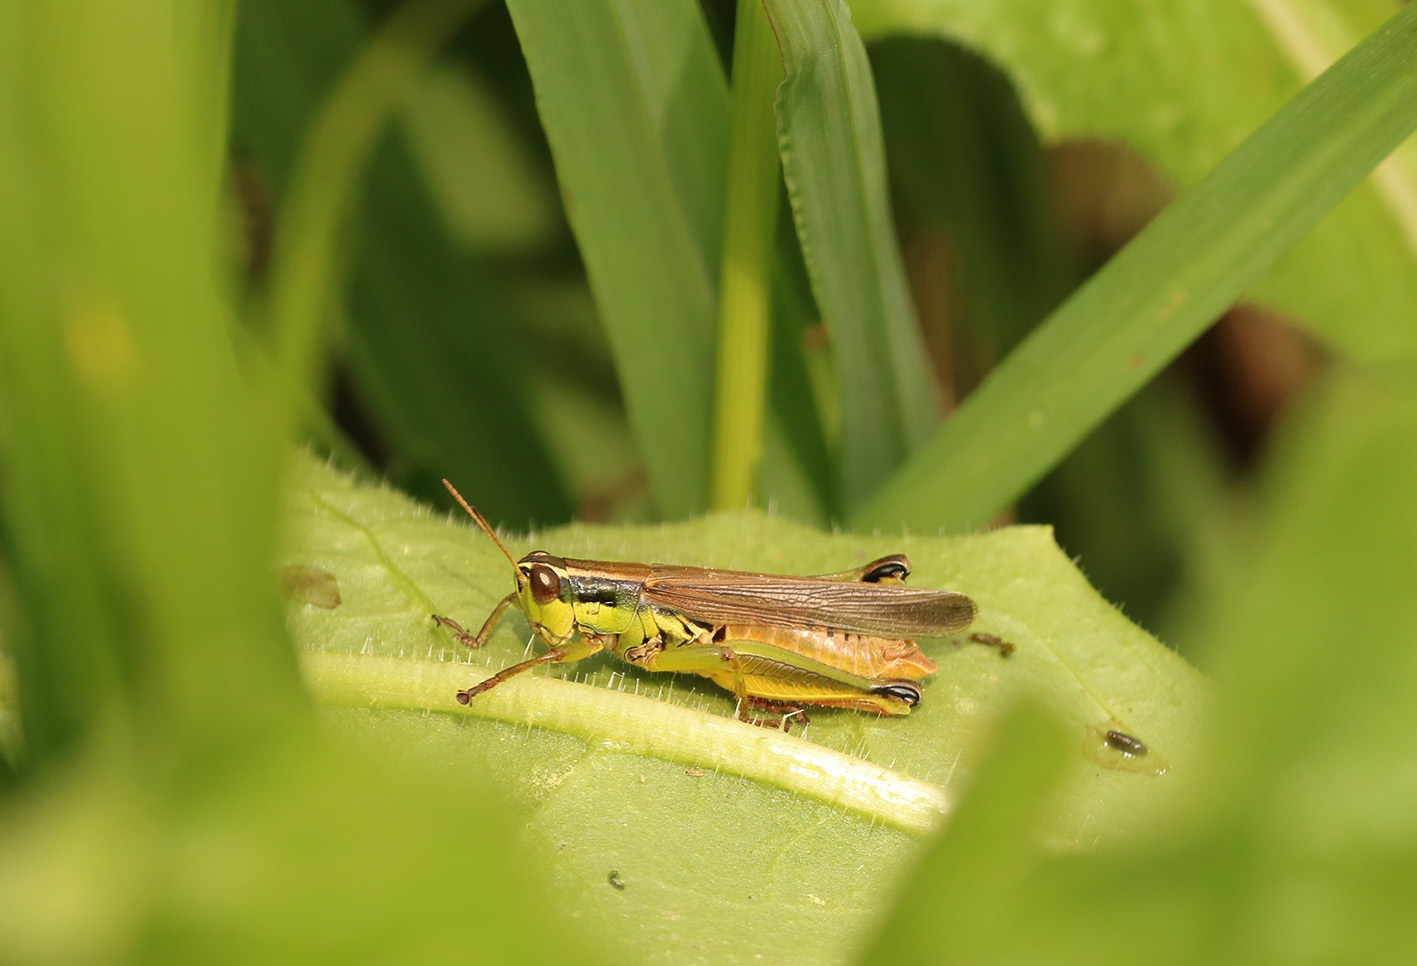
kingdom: Animalia
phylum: Arthropoda
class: Insecta
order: Orthoptera
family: Acrididae
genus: Scotussa
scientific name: Scotussa cliens
